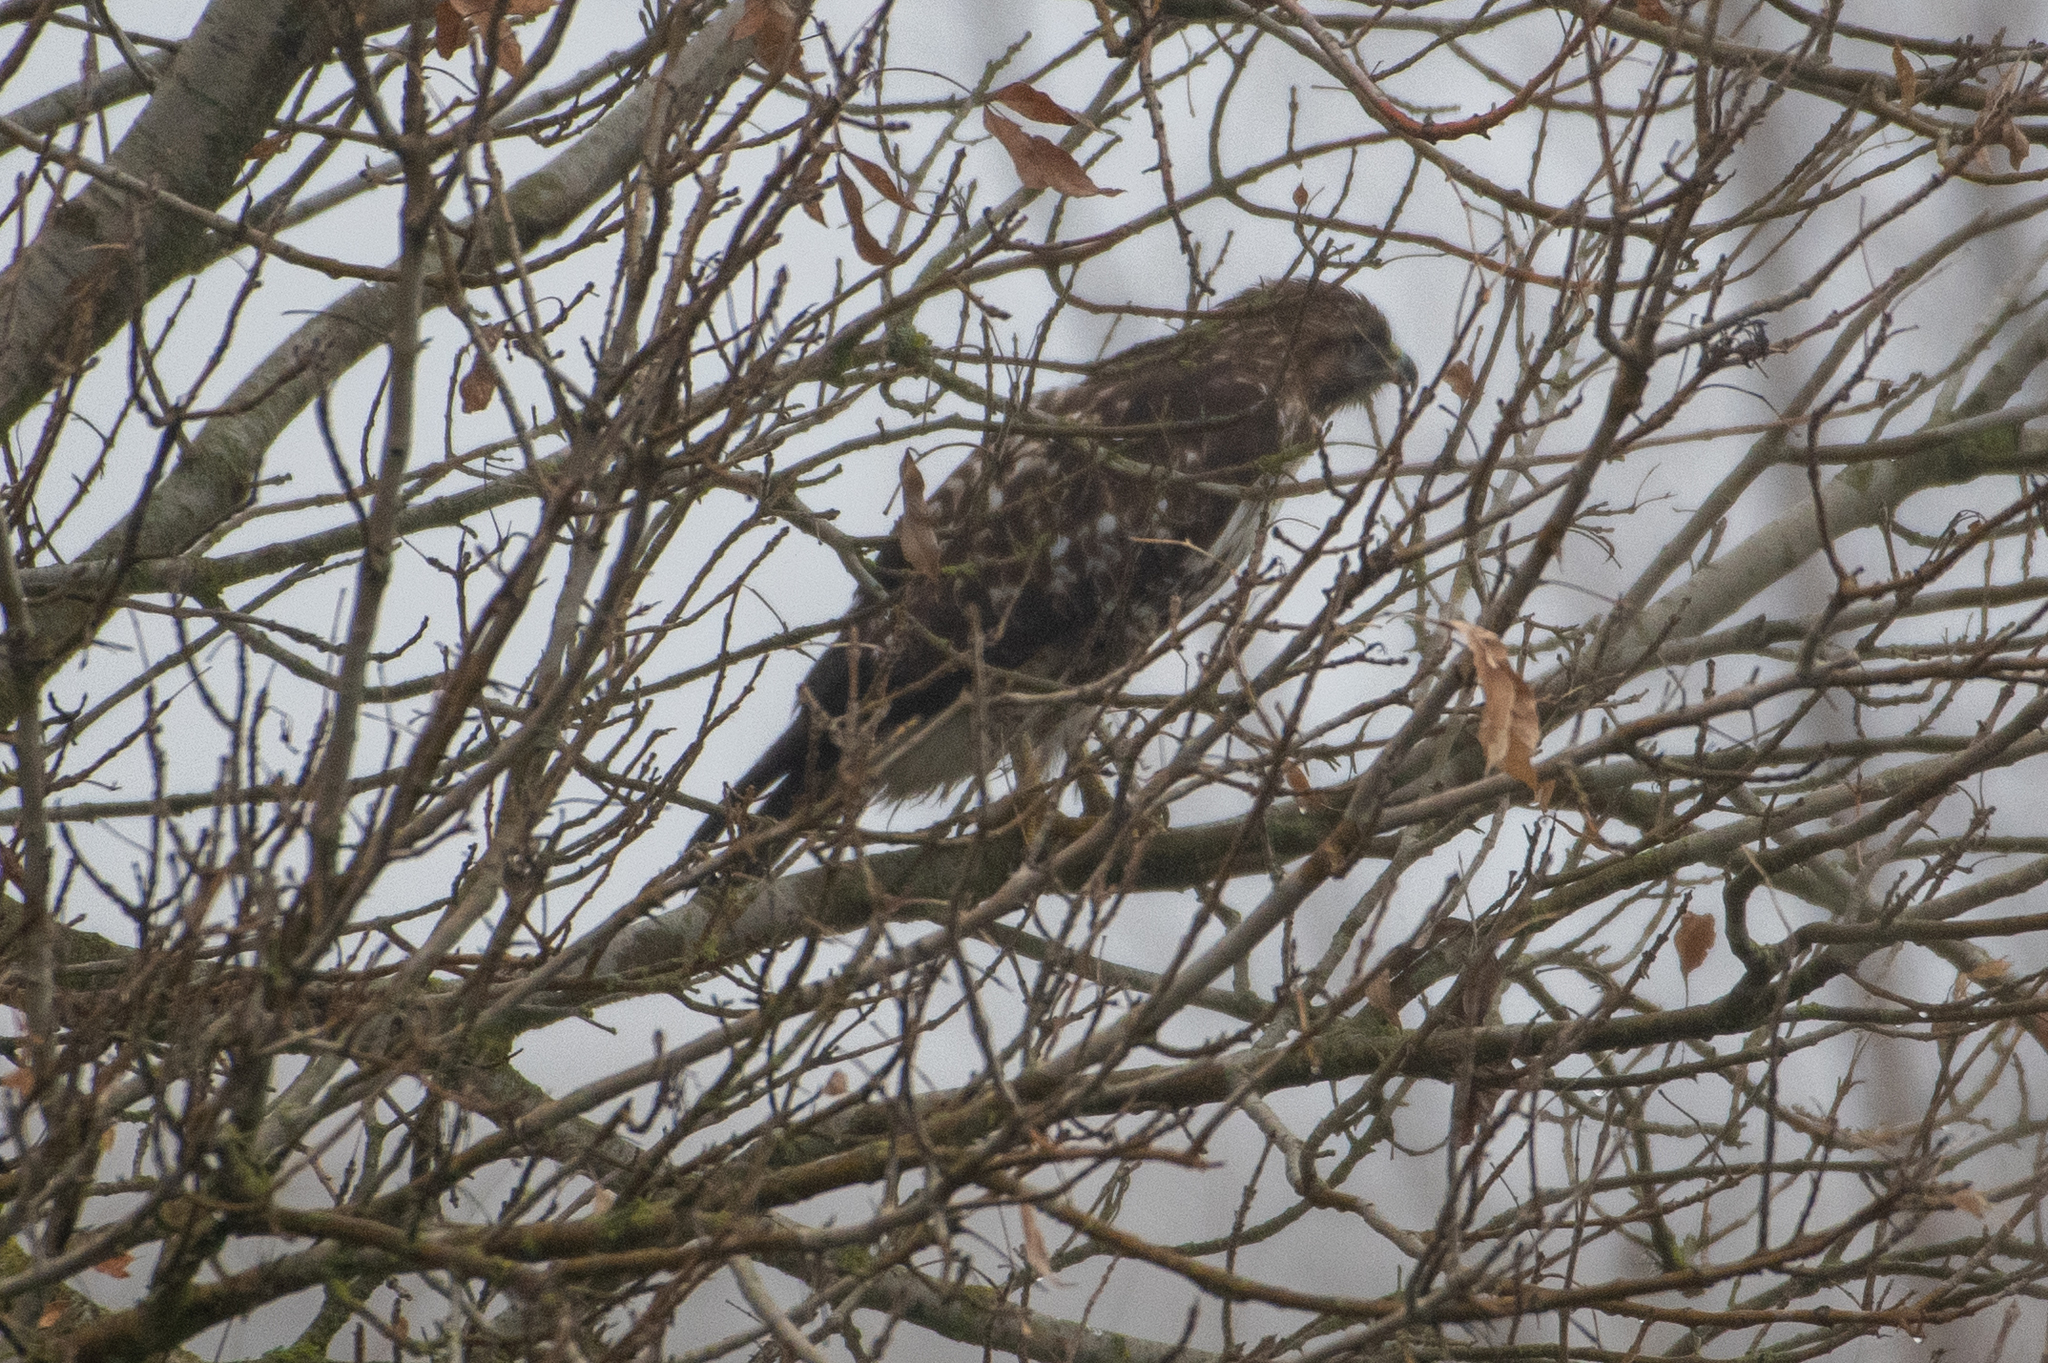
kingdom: Animalia
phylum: Chordata
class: Aves
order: Accipitriformes
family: Accipitridae
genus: Buteo
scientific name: Buteo jamaicensis
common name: Red-tailed hawk
